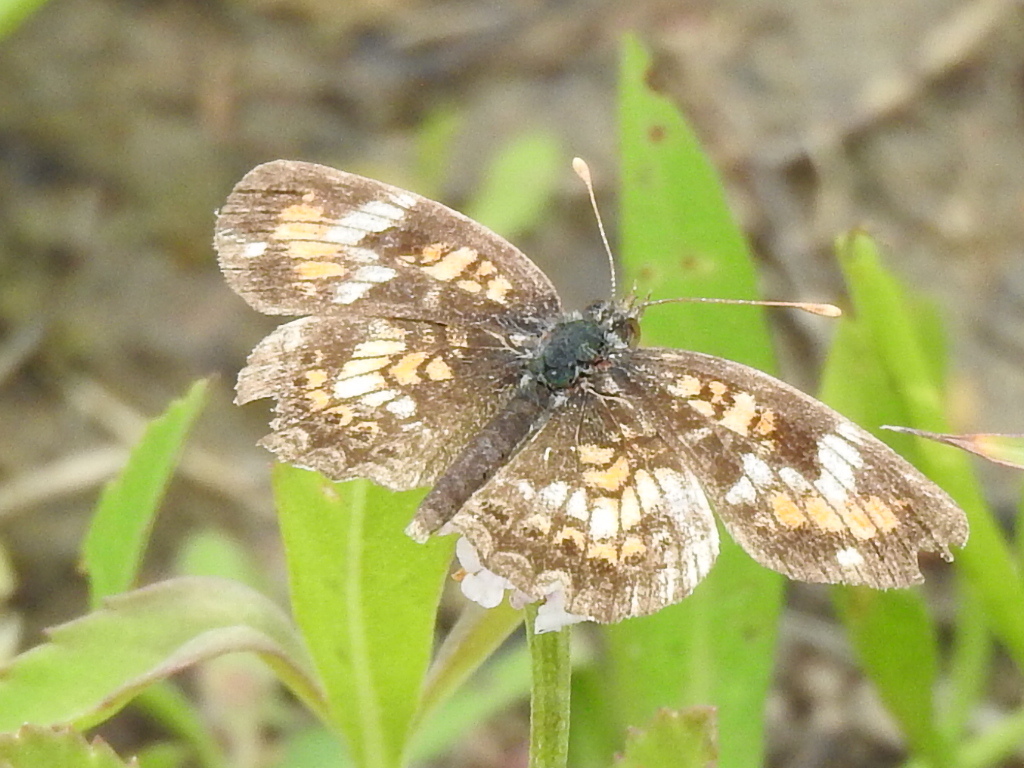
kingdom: Animalia
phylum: Arthropoda
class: Insecta
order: Lepidoptera
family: Nymphalidae
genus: Phyciodes
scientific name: Phyciodes phaon
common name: Phaon crescent
